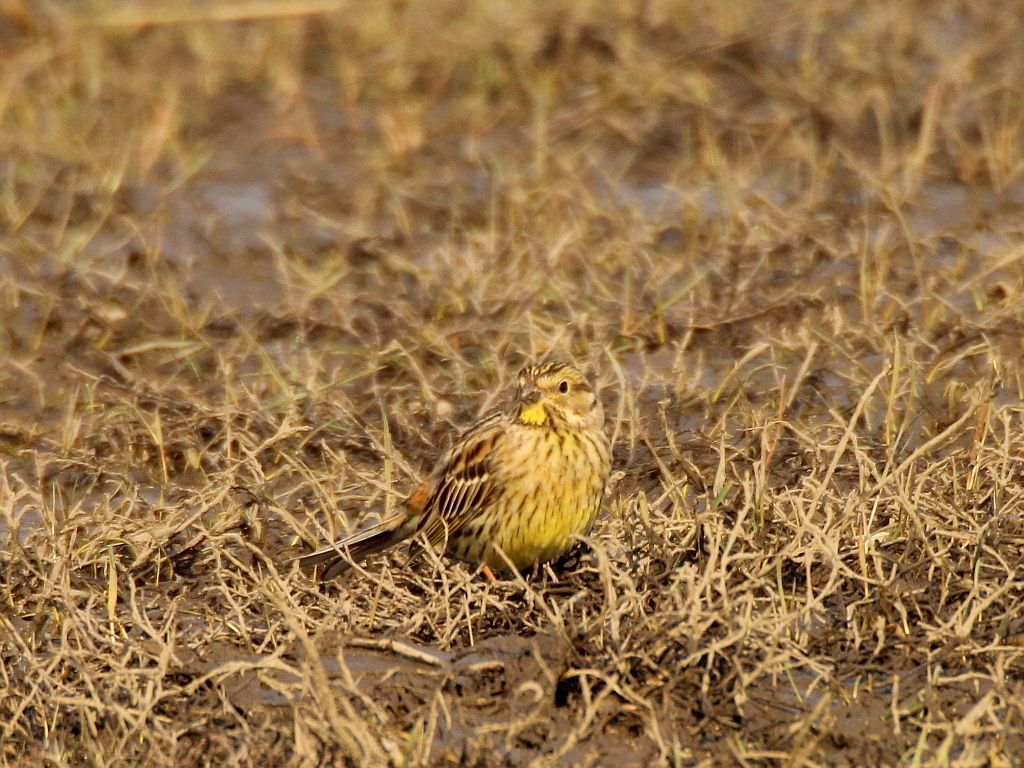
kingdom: Animalia
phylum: Chordata
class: Aves
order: Passeriformes
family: Emberizidae
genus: Emberiza
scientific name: Emberiza citrinella
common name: Yellowhammer
